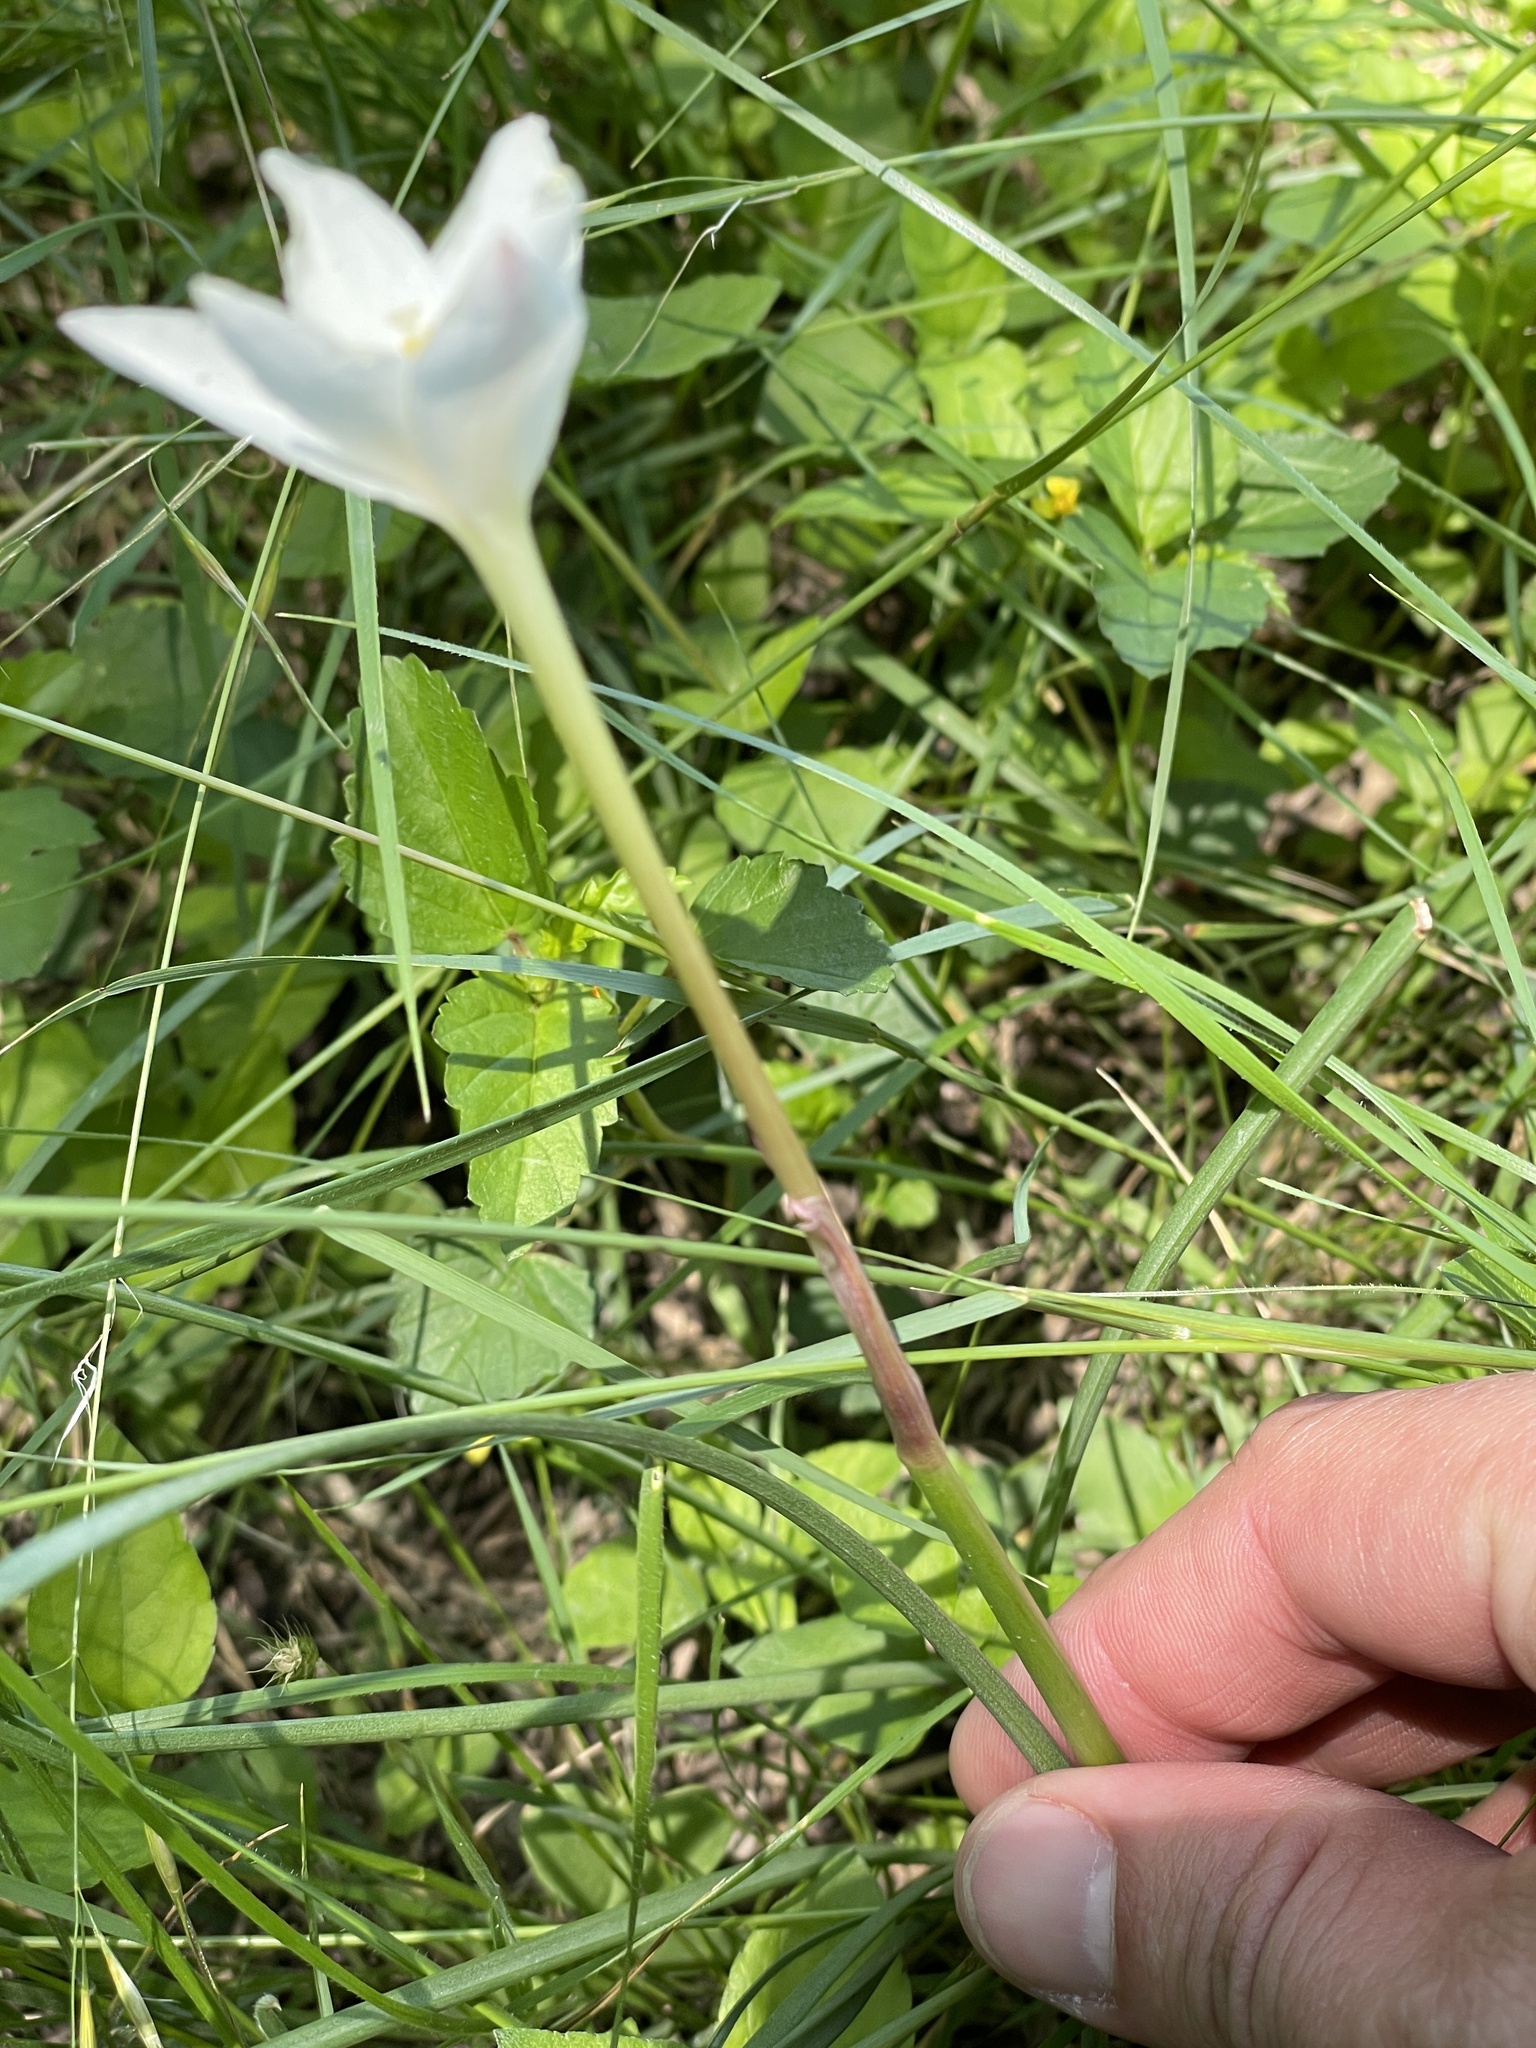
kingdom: Plantae
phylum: Tracheophyta
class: Liliopsida
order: Asparagales
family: Amaryllidaceae
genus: Zephyranthes
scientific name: Zephyranthes chlorosolen
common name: Evening rain-lily
